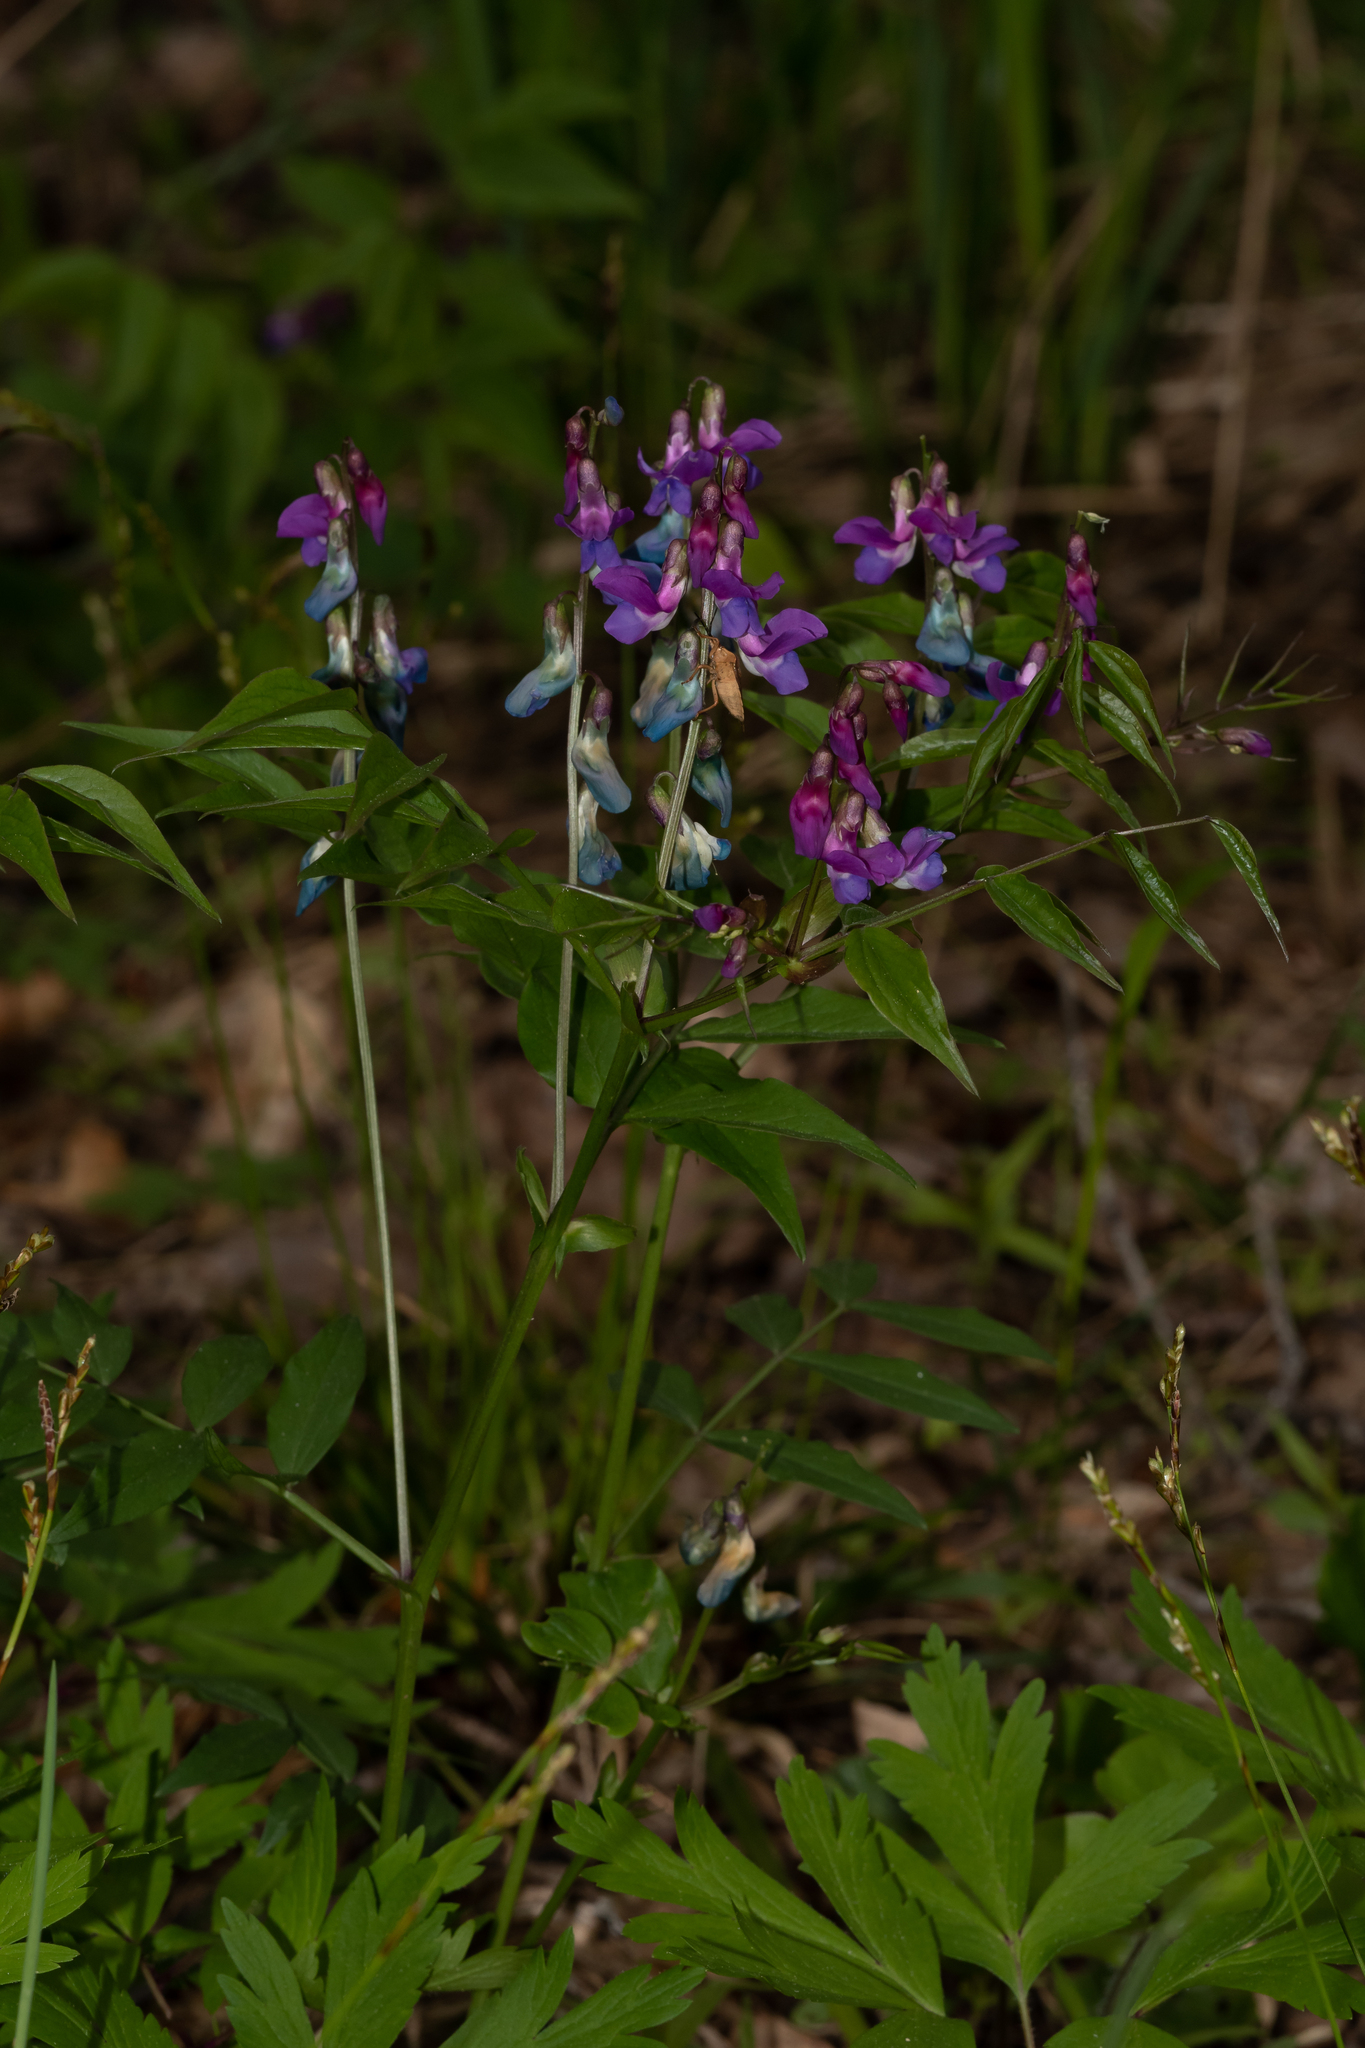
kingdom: Plantae
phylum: Tracheophyta
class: Magnoliopsida
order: Fabales
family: Fabaceae
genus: Lathyrus
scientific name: Lathyrus vernus
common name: Spring pea
